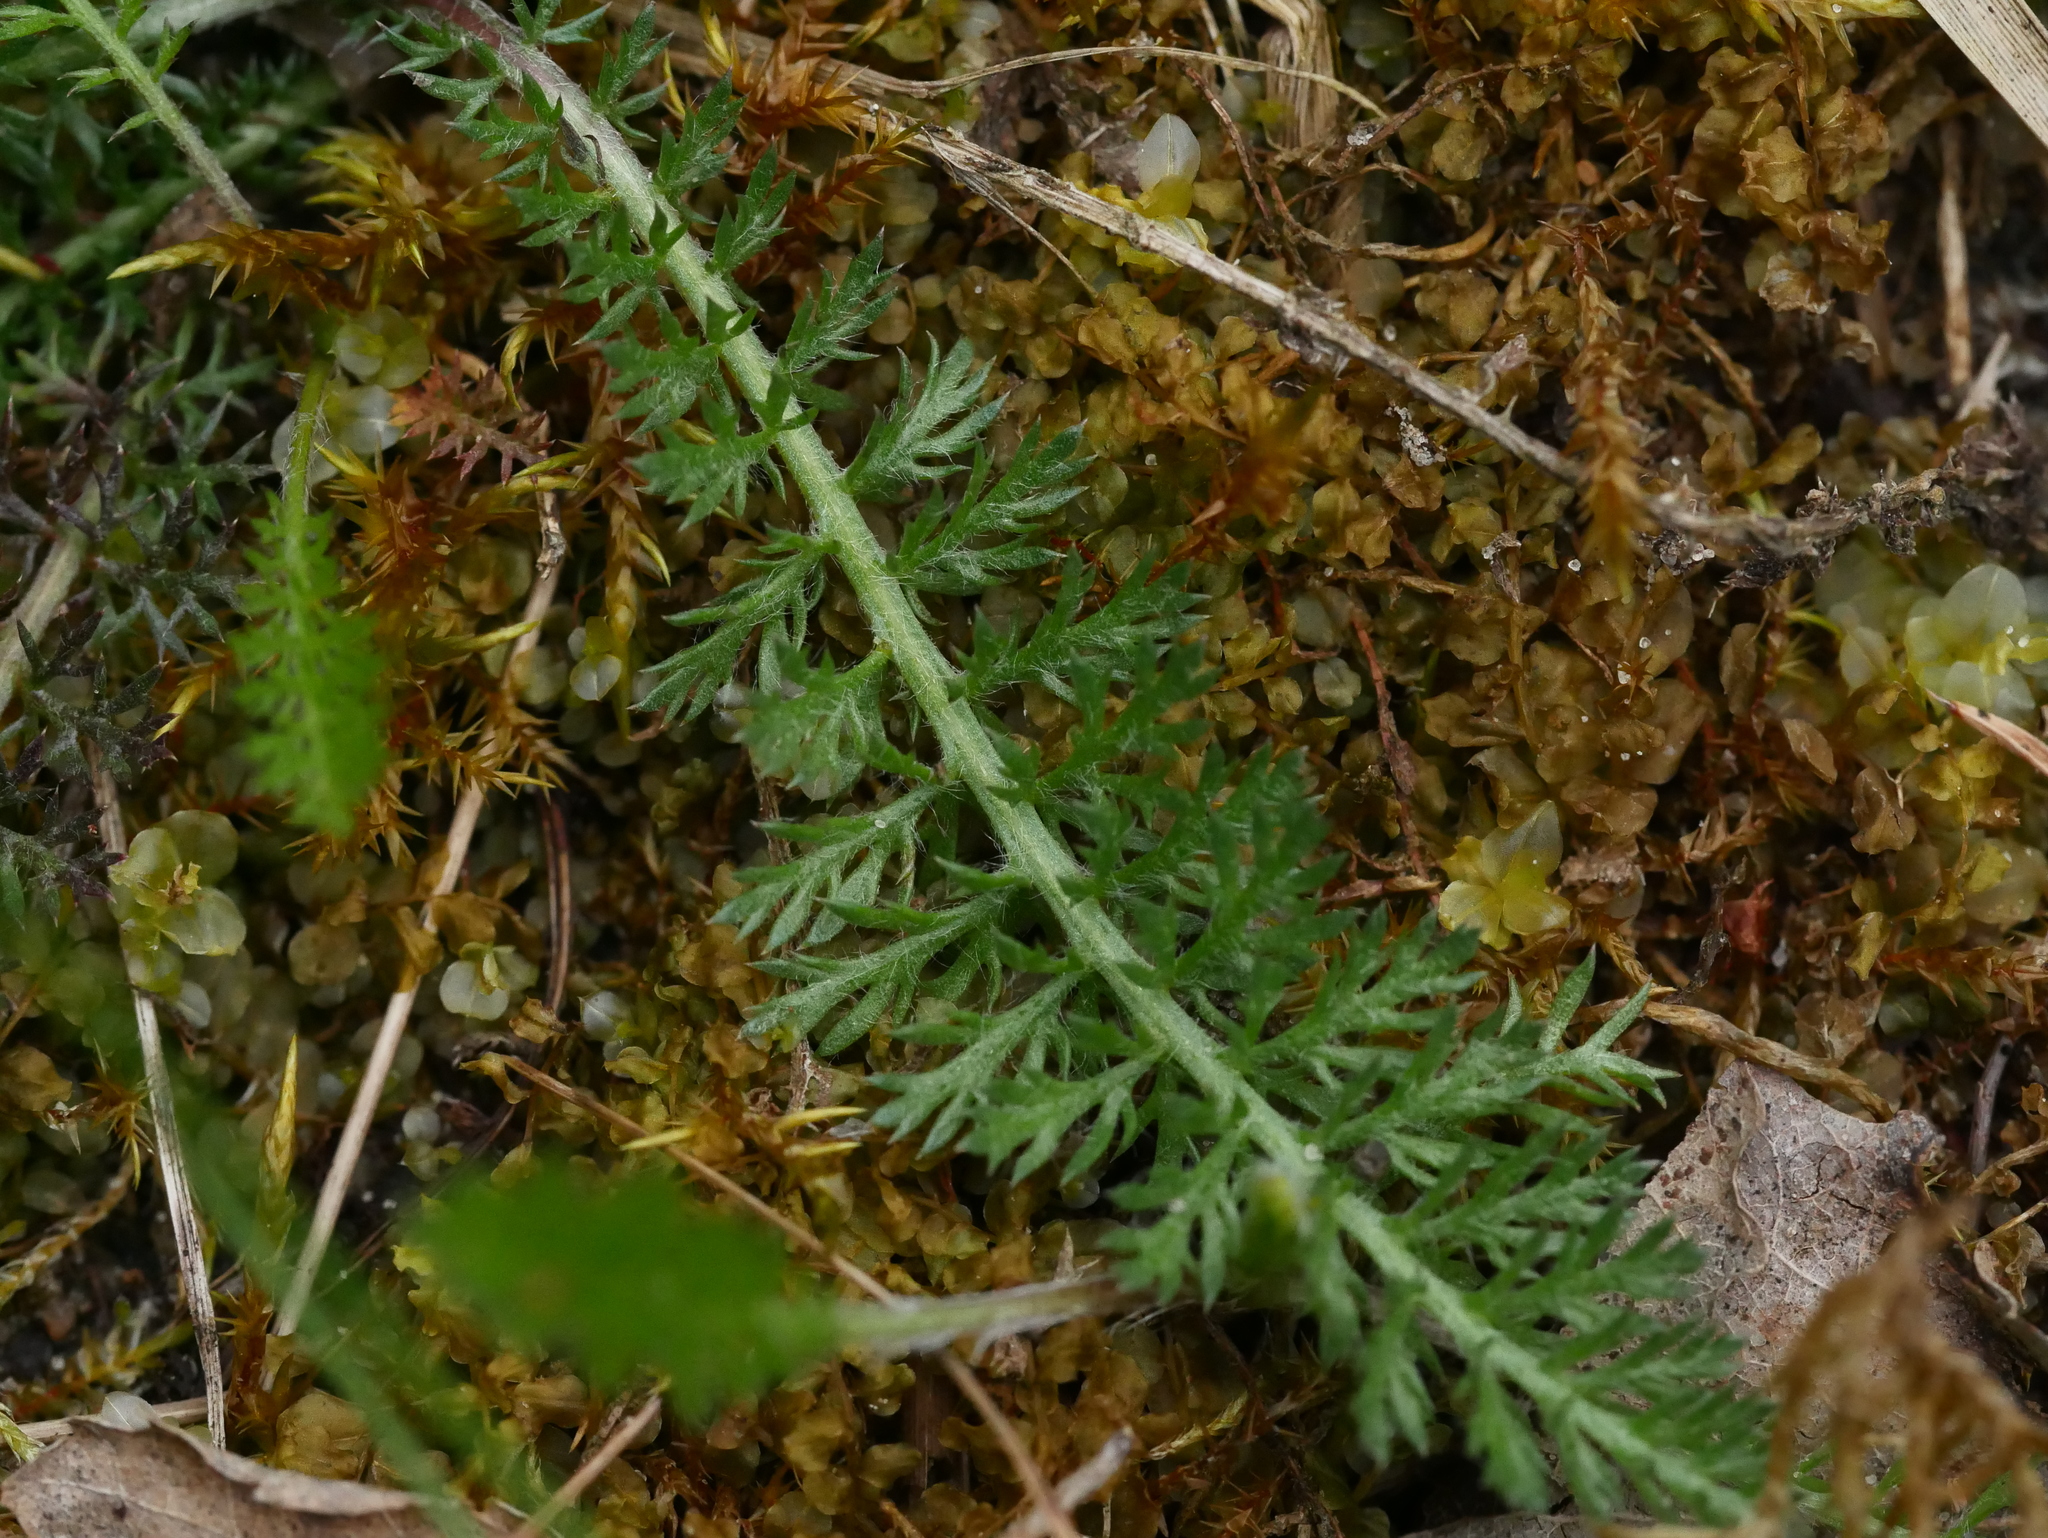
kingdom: Plantae
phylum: Tracheophyta
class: Magnoliopsida
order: Asterales
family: Asteraceae
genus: Achillea
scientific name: Achillea millefolium
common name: Yarrow
